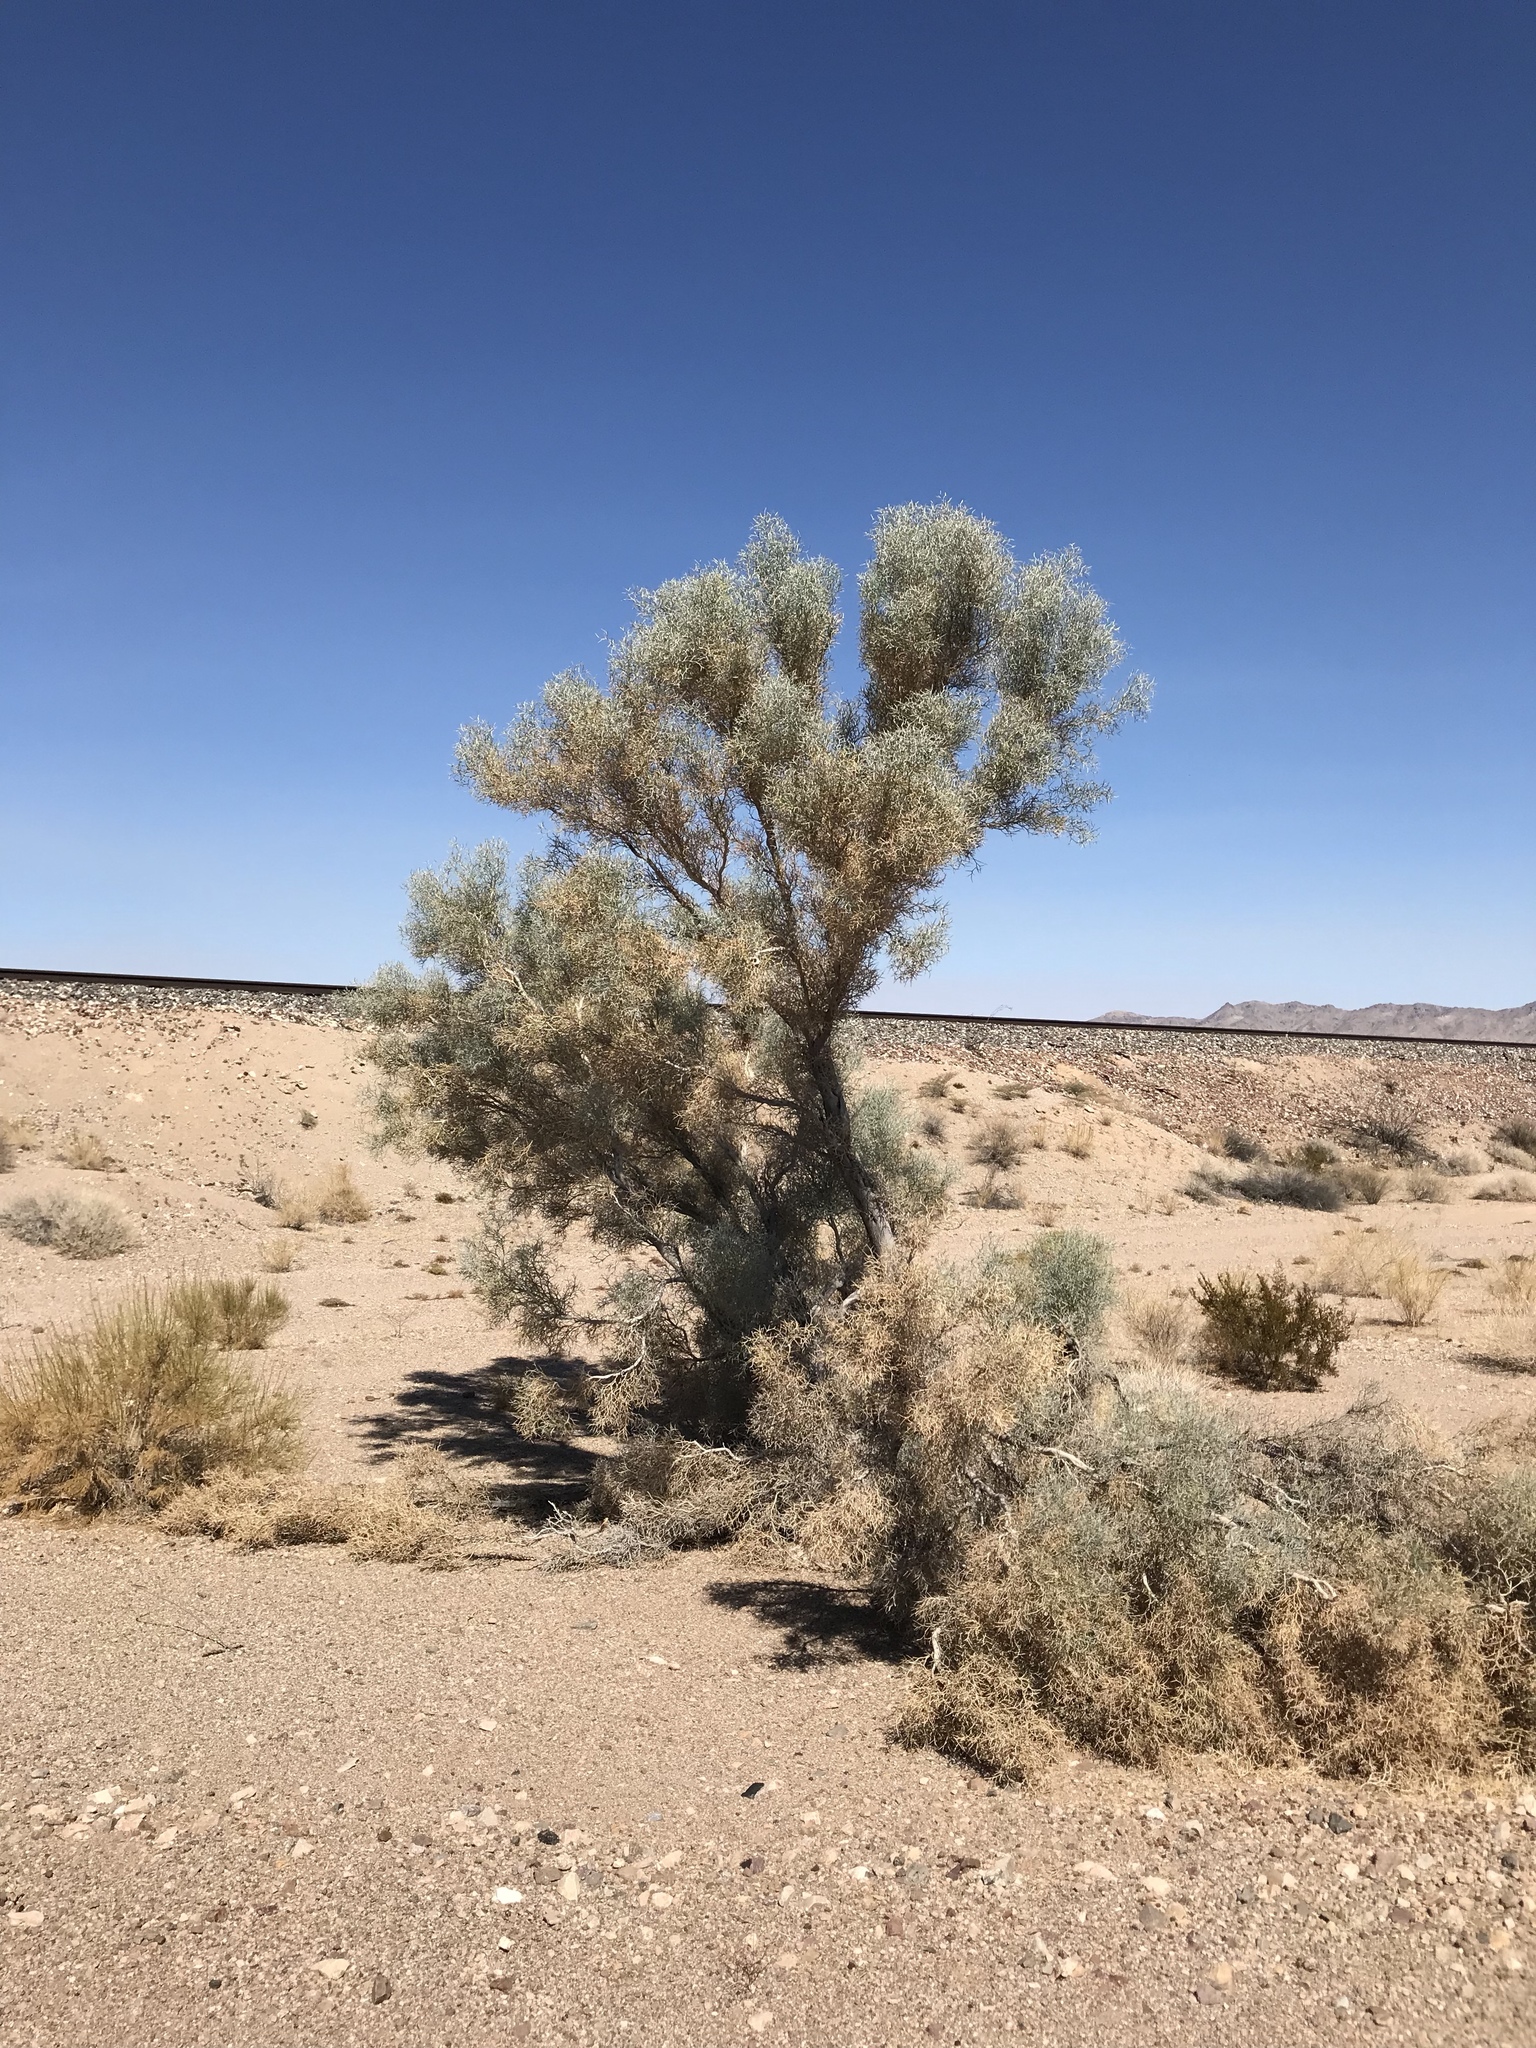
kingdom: Plantae
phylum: Tracheophyta
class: Magnoliopsida
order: Fabales
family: Fabaceae
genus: Psorothamnus
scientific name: Psorothamnus spinosus
